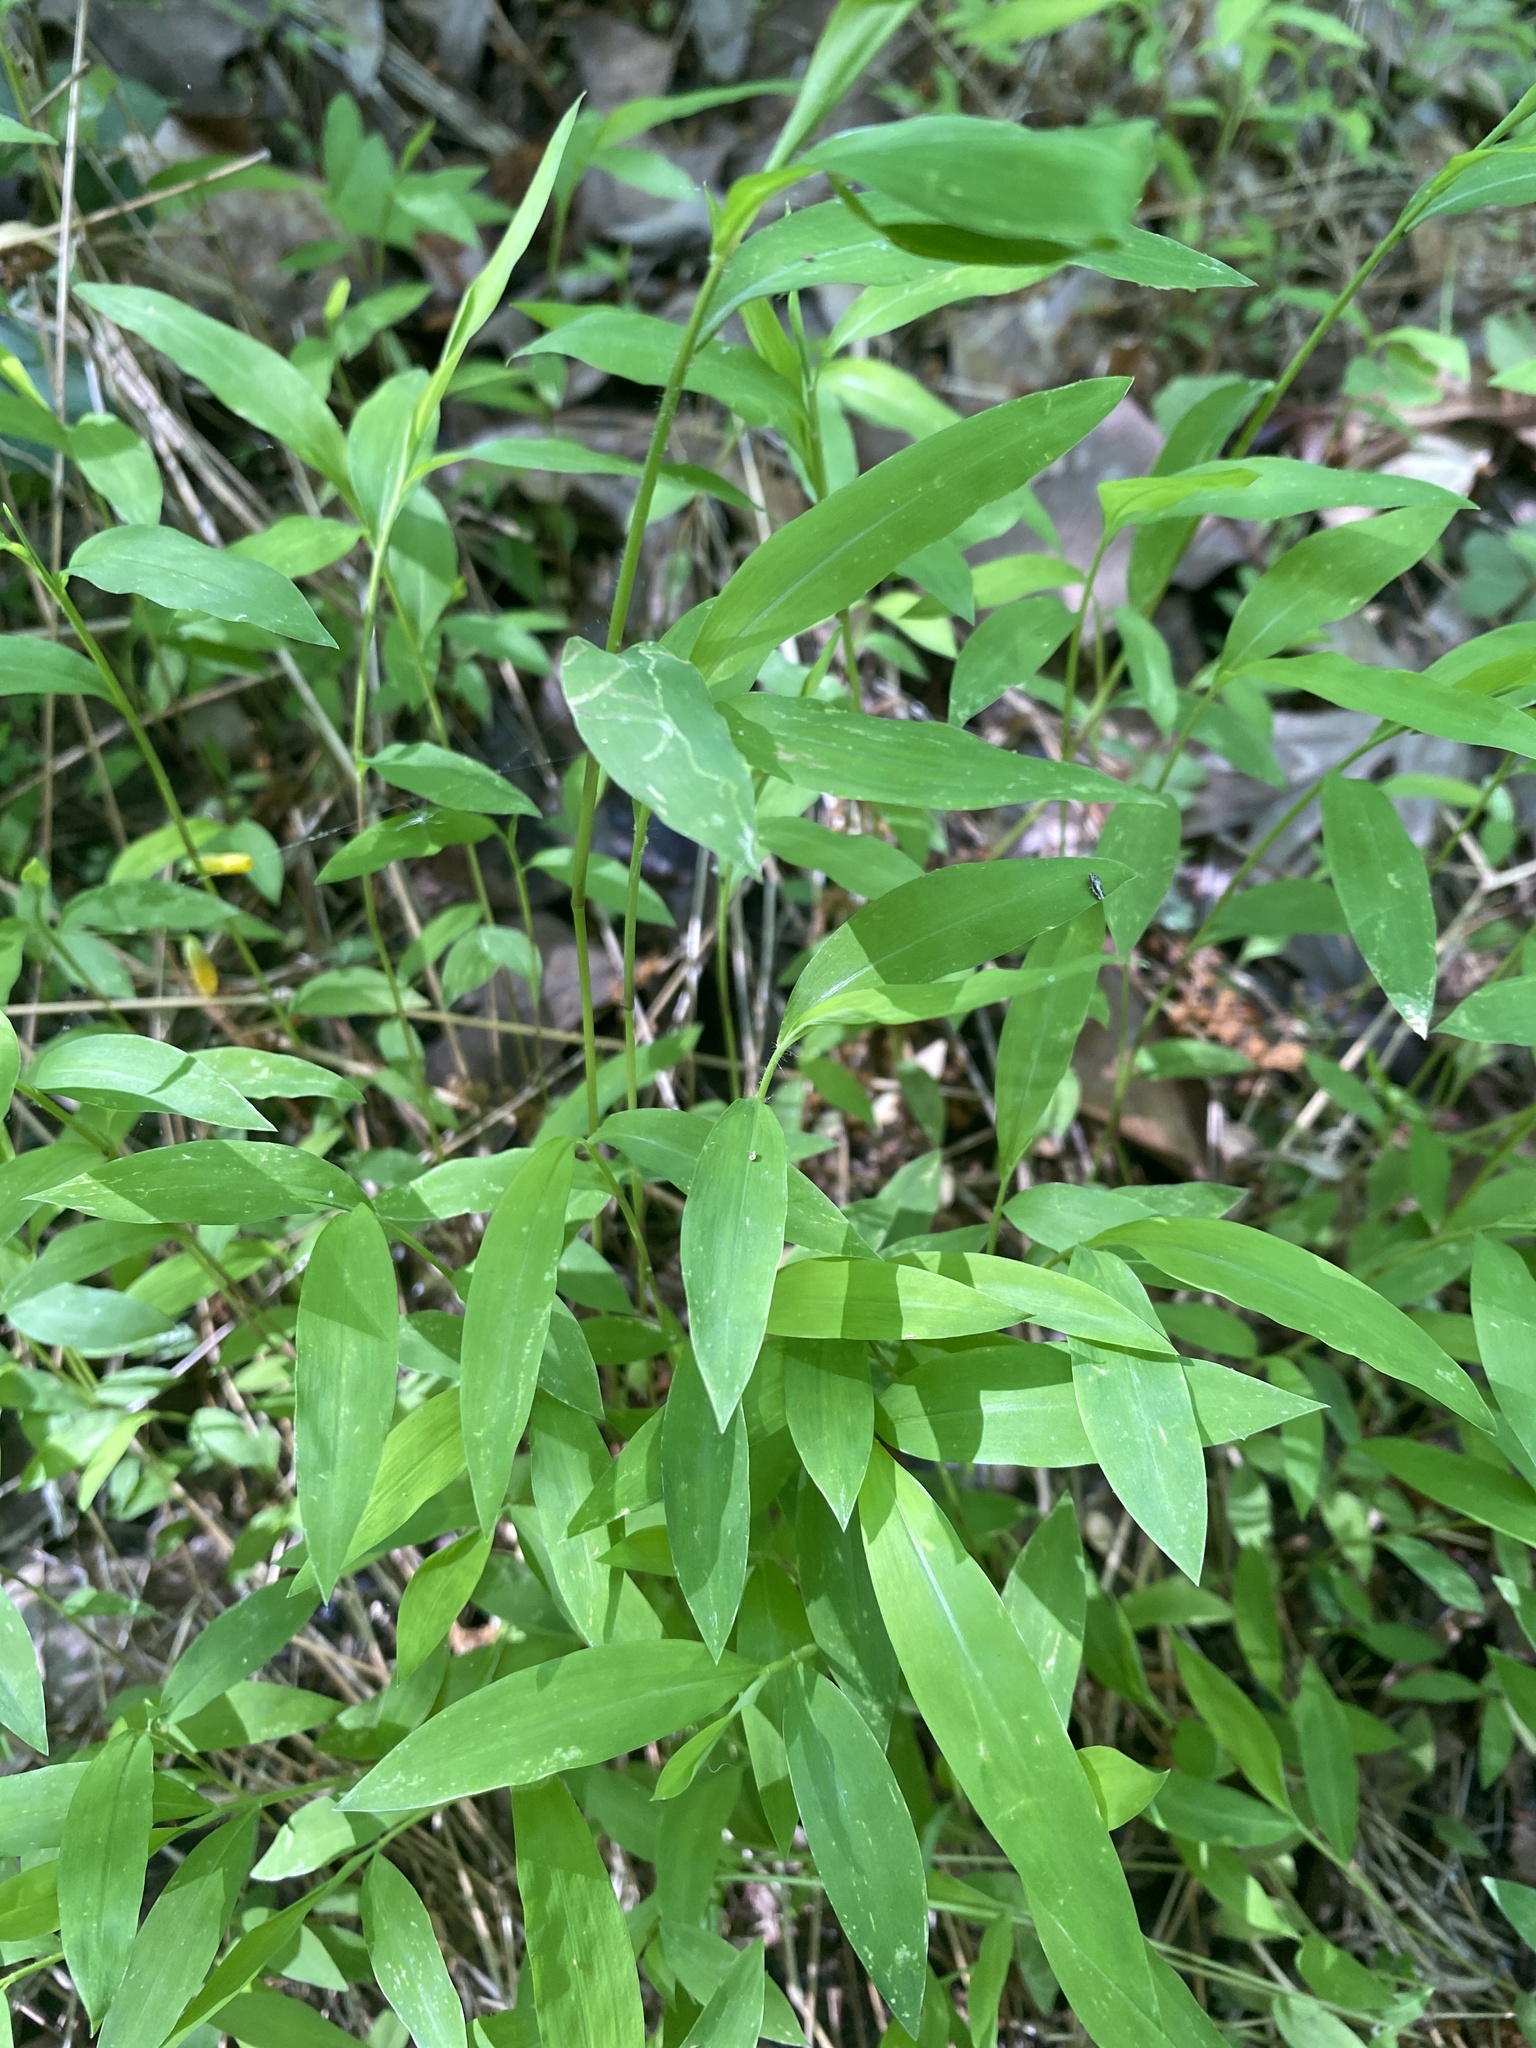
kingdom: Plantae
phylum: Tracheophyta
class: Liliopsida
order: Poales
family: Poaceae
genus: Microstegium
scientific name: Microstegium vimineum
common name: Japanese stiltgrass
